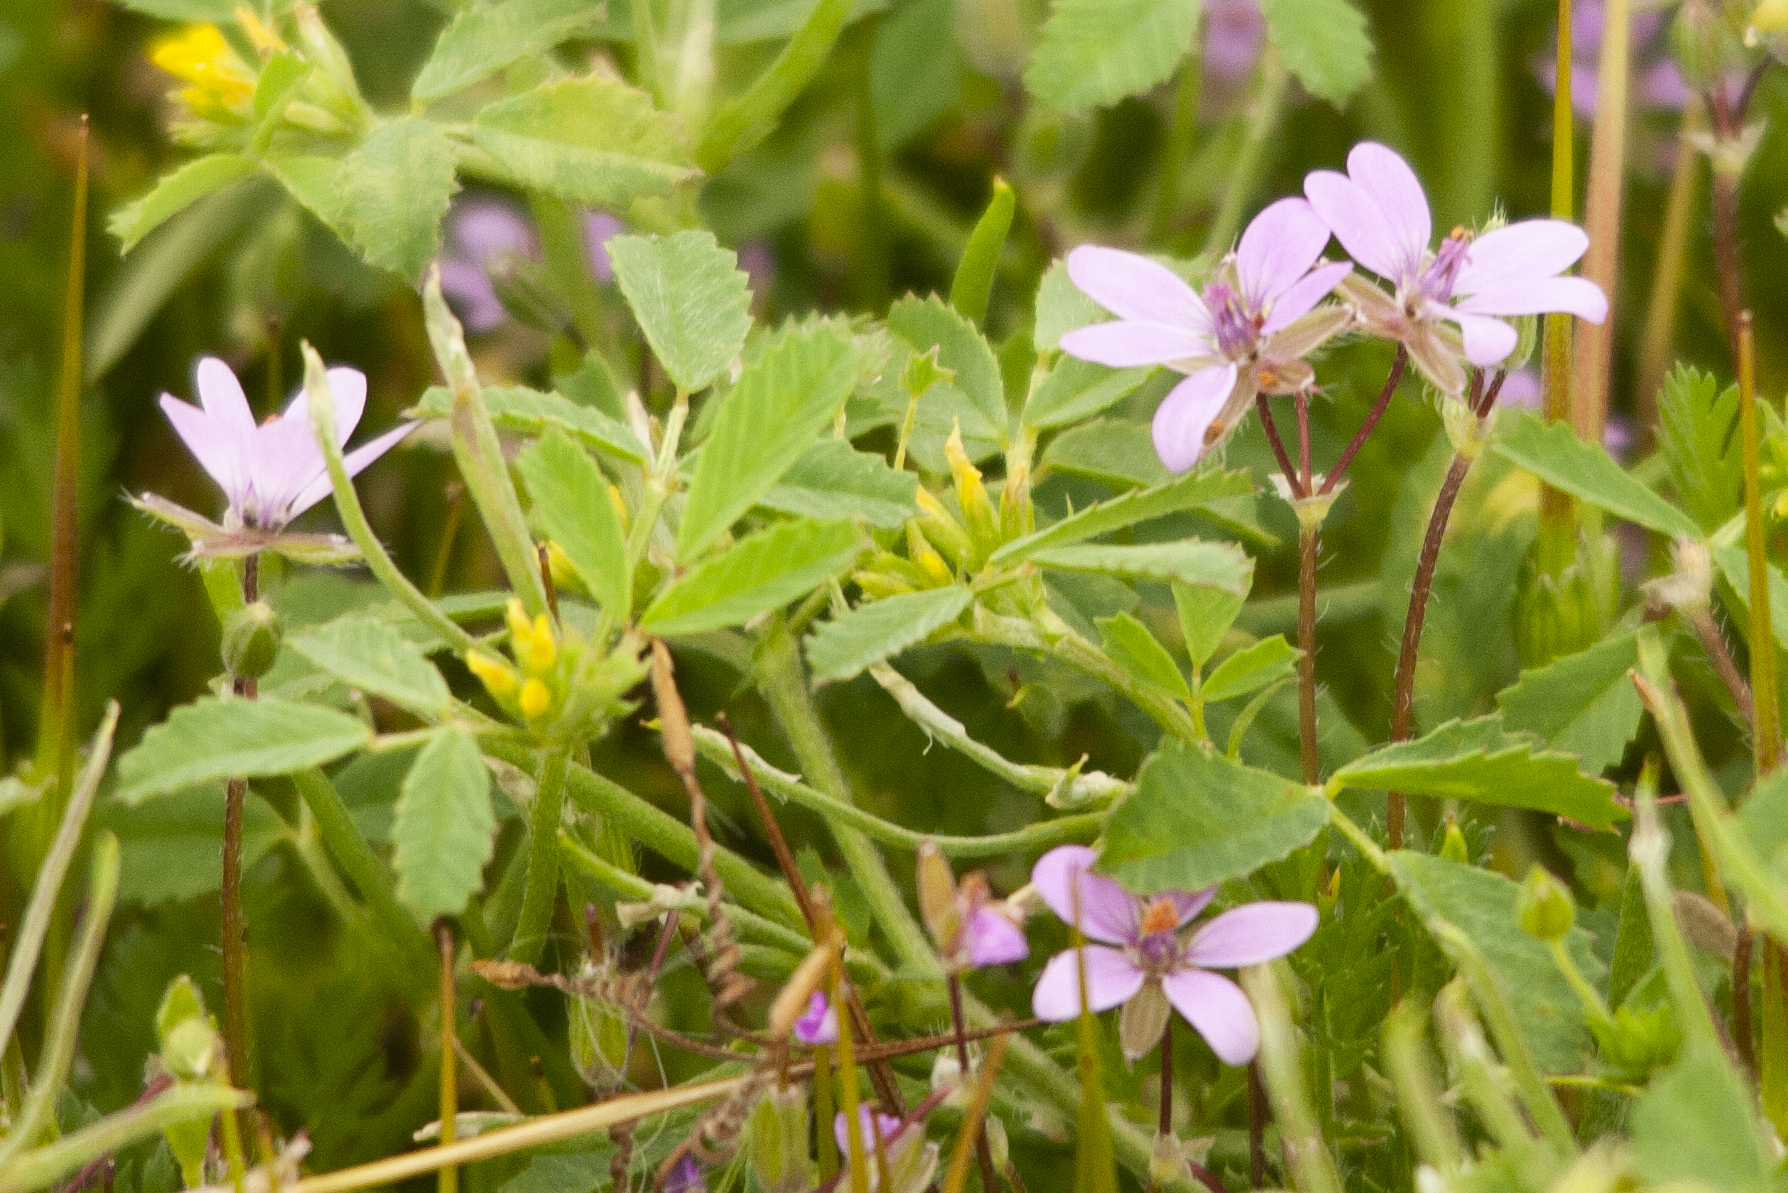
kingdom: Plantae
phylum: Tracheophyta
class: Magnoliopsida
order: Geraniales
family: Geraniaceae
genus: Erodium
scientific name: Erodium cicutarium
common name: Common stork's-bill
